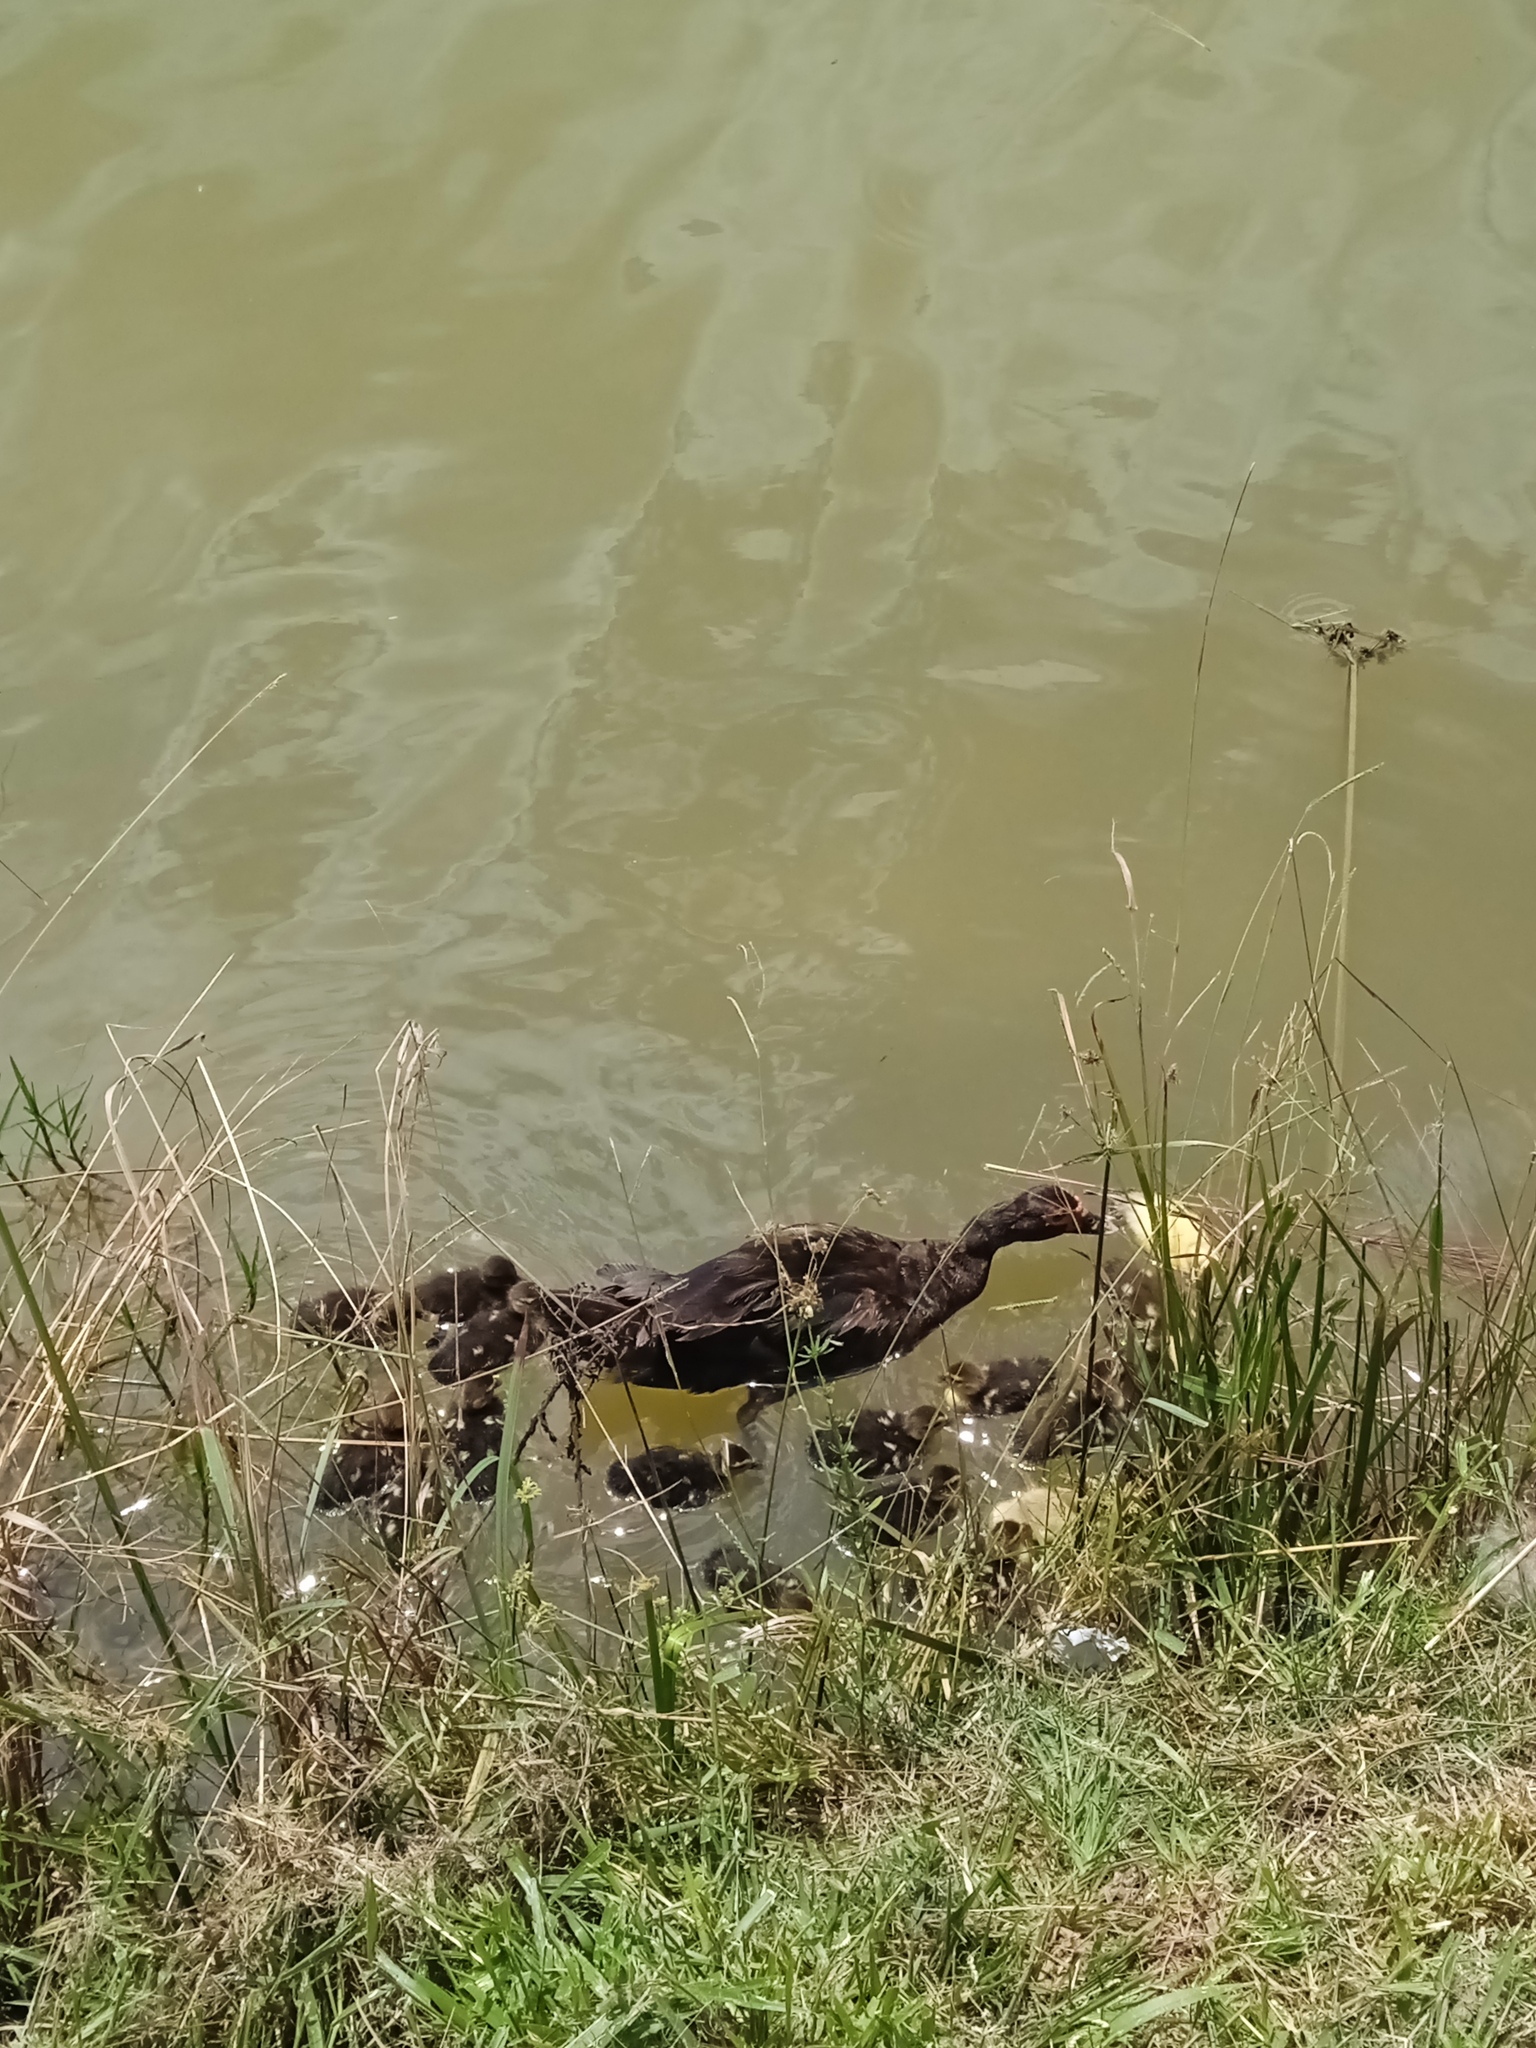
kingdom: Animalia
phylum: Chordata
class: Aves
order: Anseriformes
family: Anatidae
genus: Cairina
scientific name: Cairina moschata
